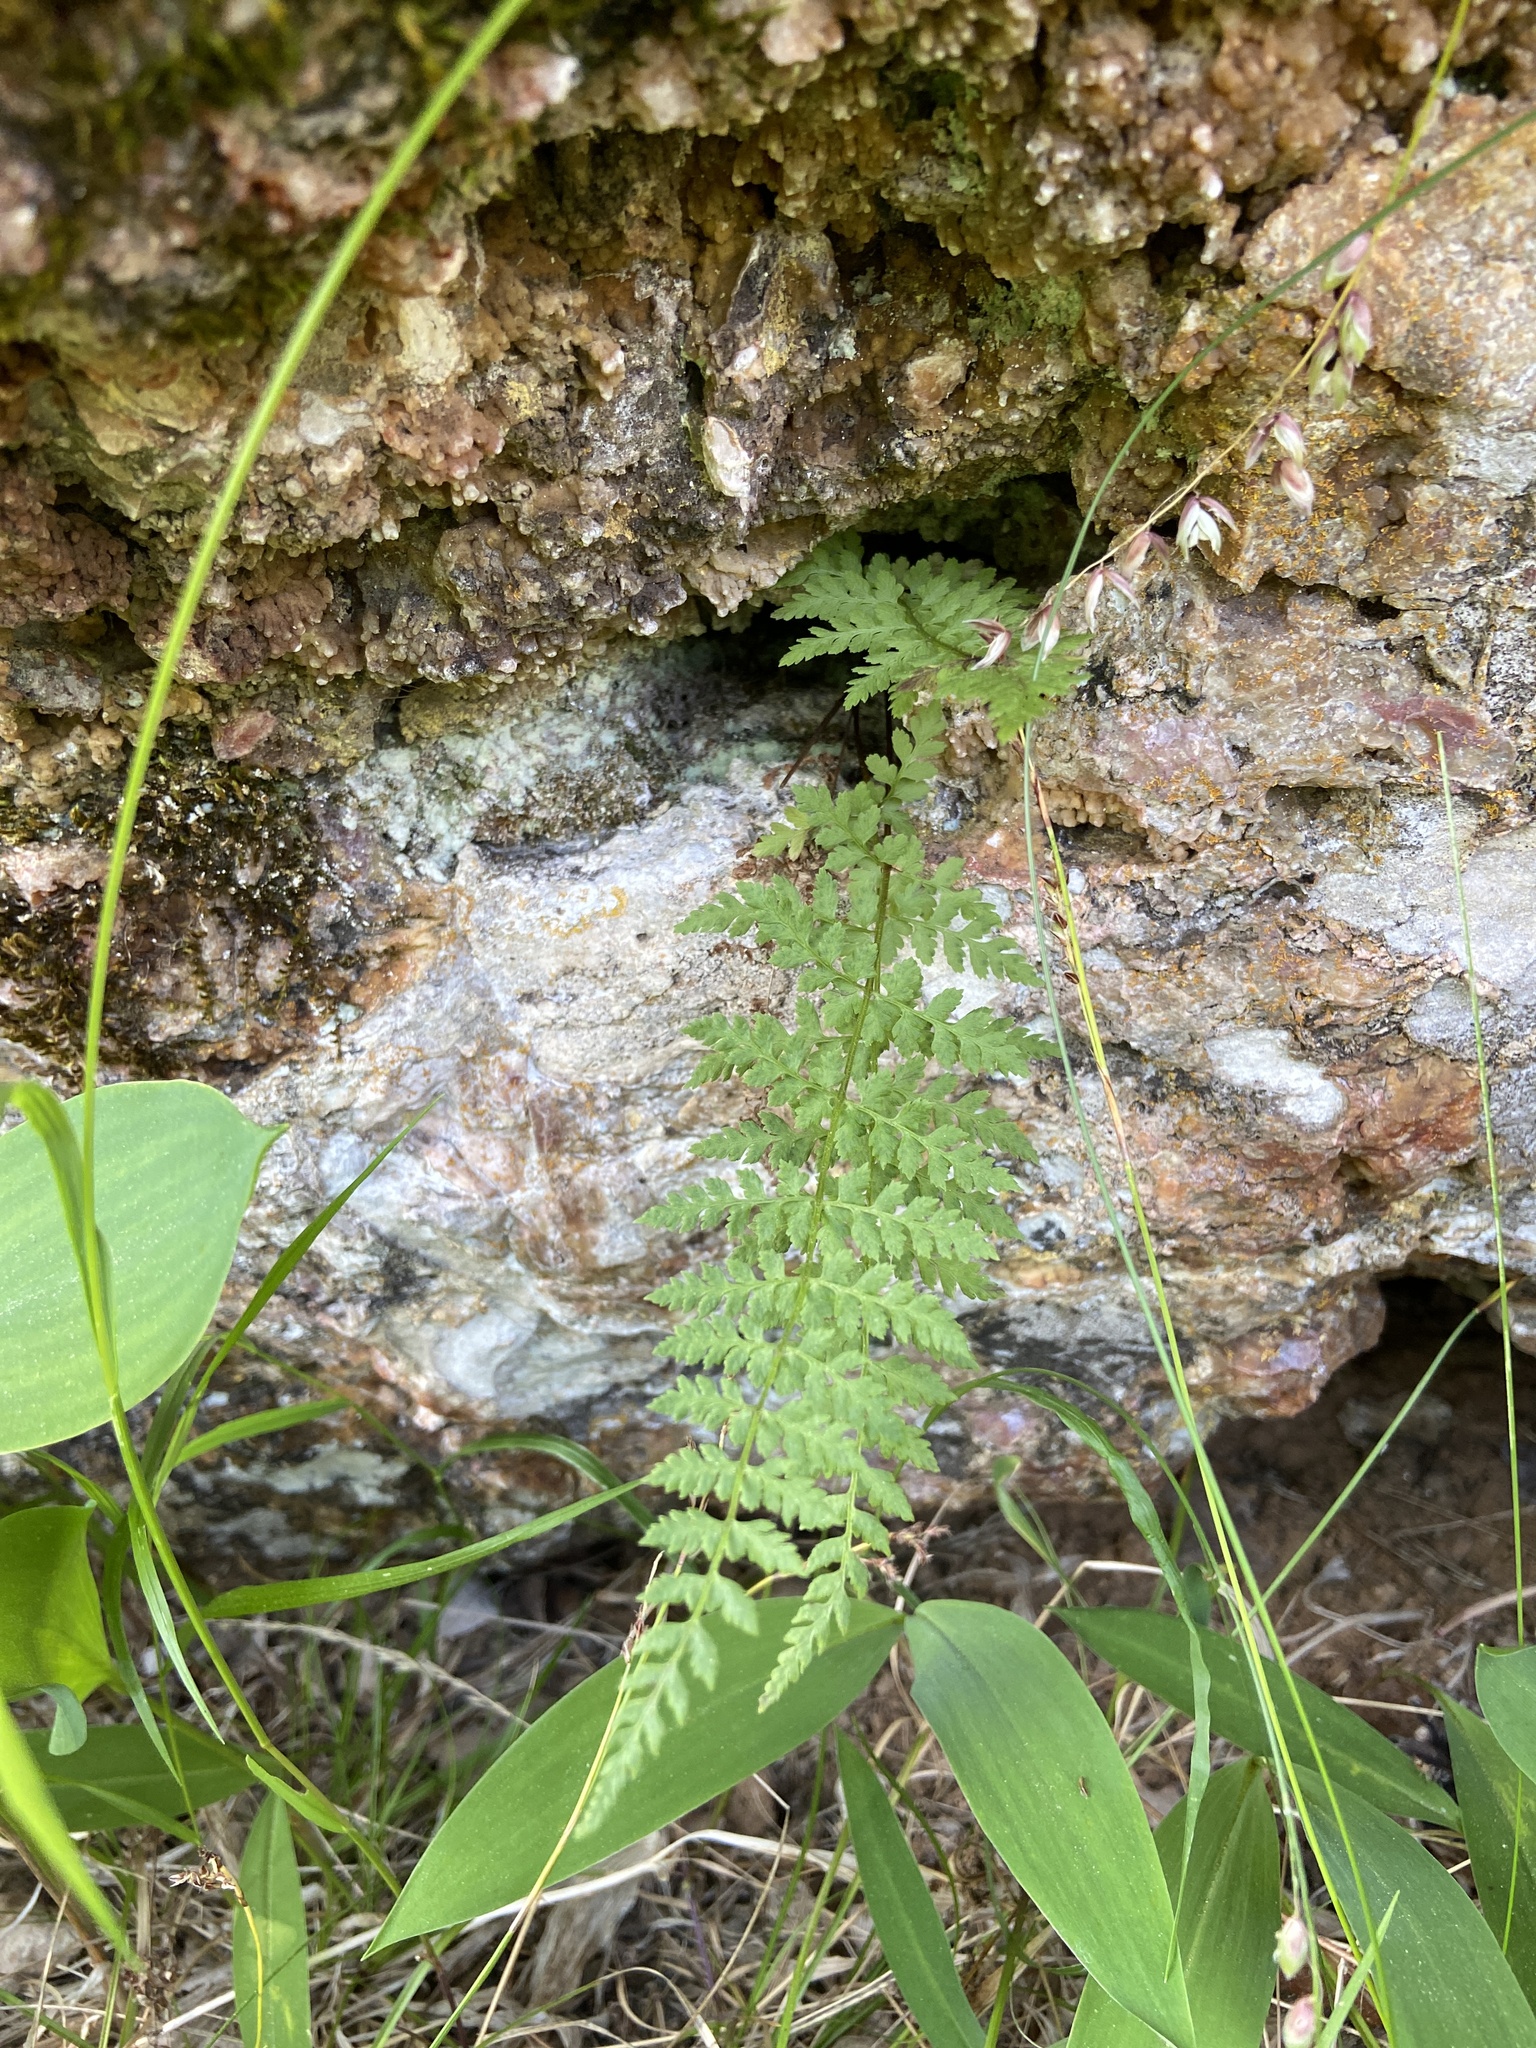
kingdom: Plantae
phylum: Tracheophyta
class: Polypodiopsida
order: Polypodiales
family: Cystopteridaceae
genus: Cystopteris
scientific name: Cystopteris fragilis
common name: Brittle bladder fern
